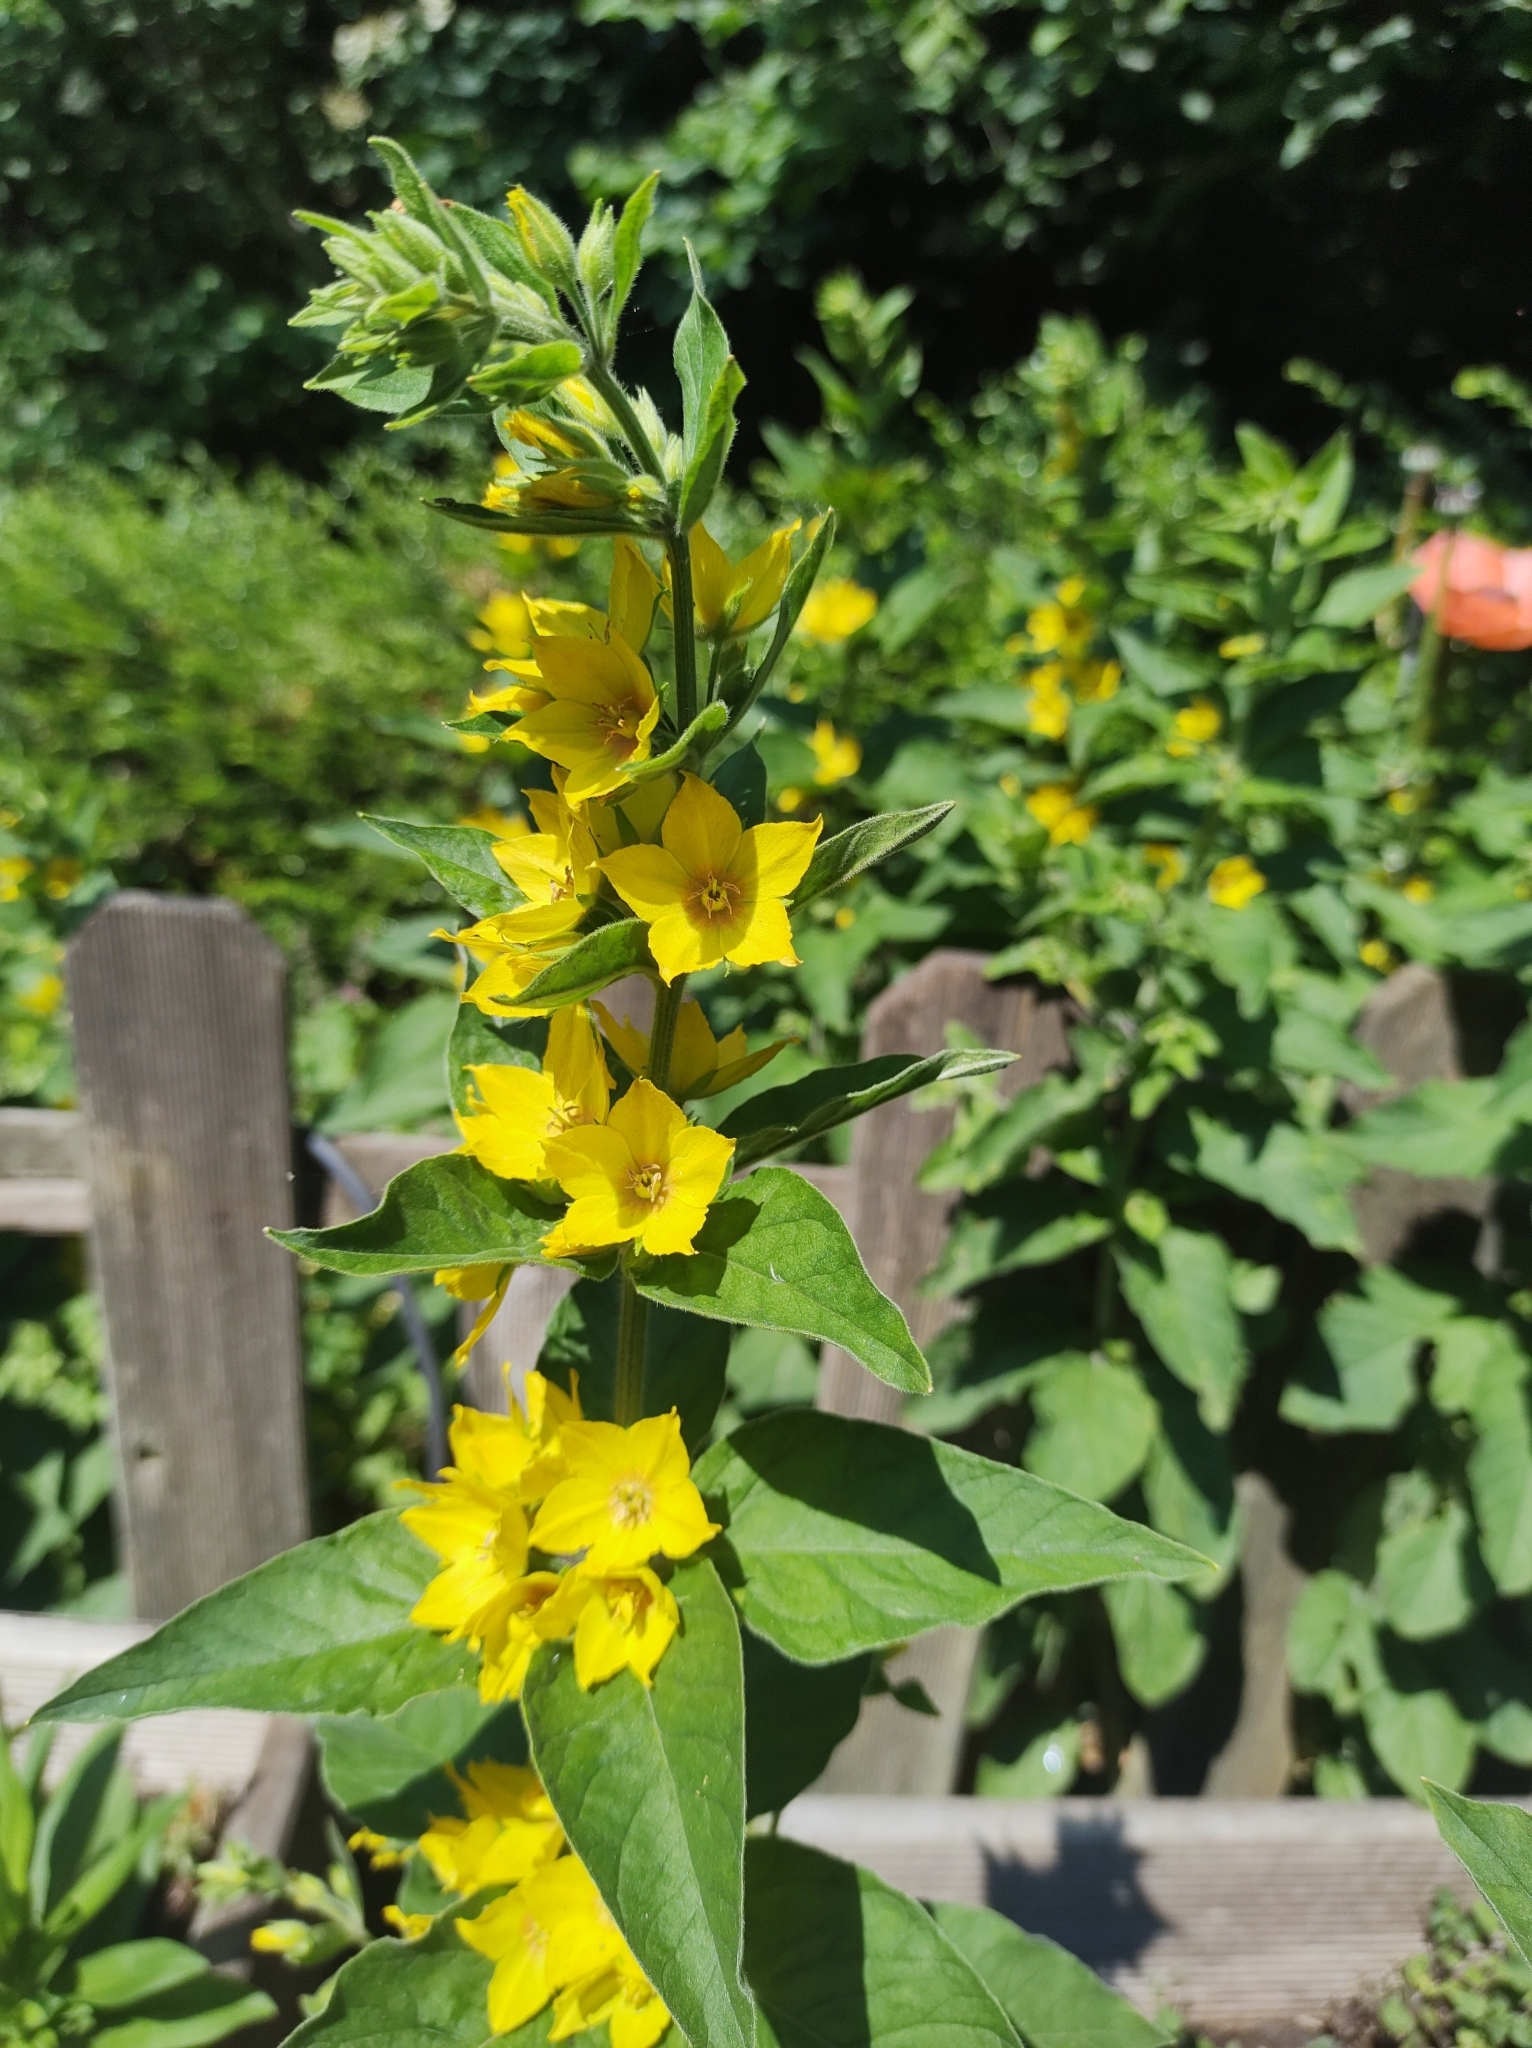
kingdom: Plantae
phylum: Tracheophyta
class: Magnoliopsida
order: Ericales
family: Primulaceae
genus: Lysimachia
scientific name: Lysimachia punctata
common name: Dotted loosestrife
